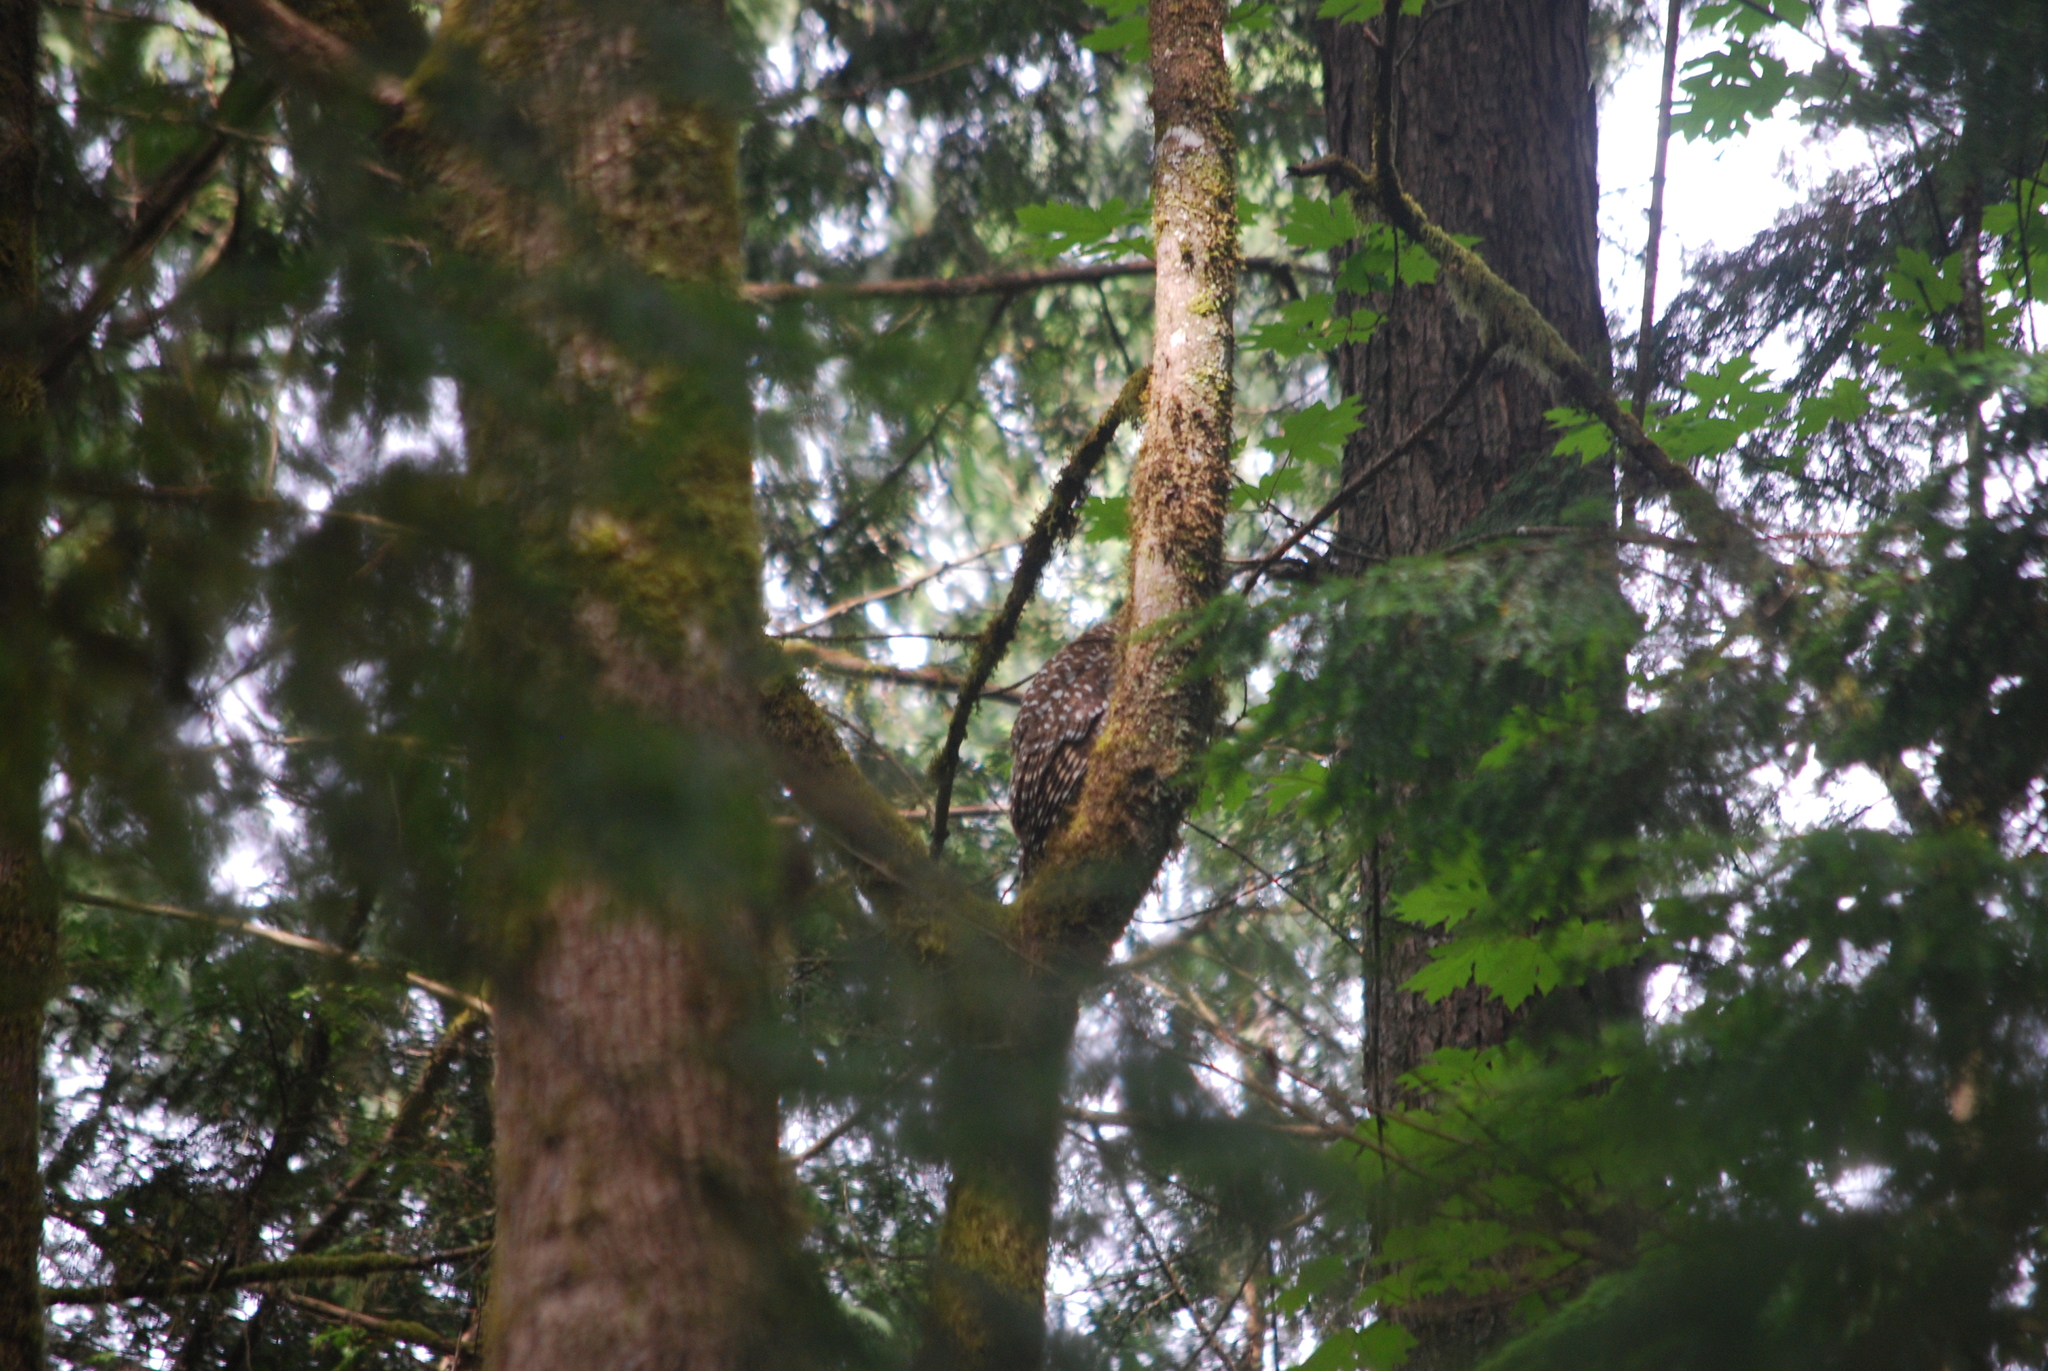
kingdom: Animalia
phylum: Chordata
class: Aves
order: Strigiformes
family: Strigidae
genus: Strix
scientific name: Strix varia
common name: Barred owl
